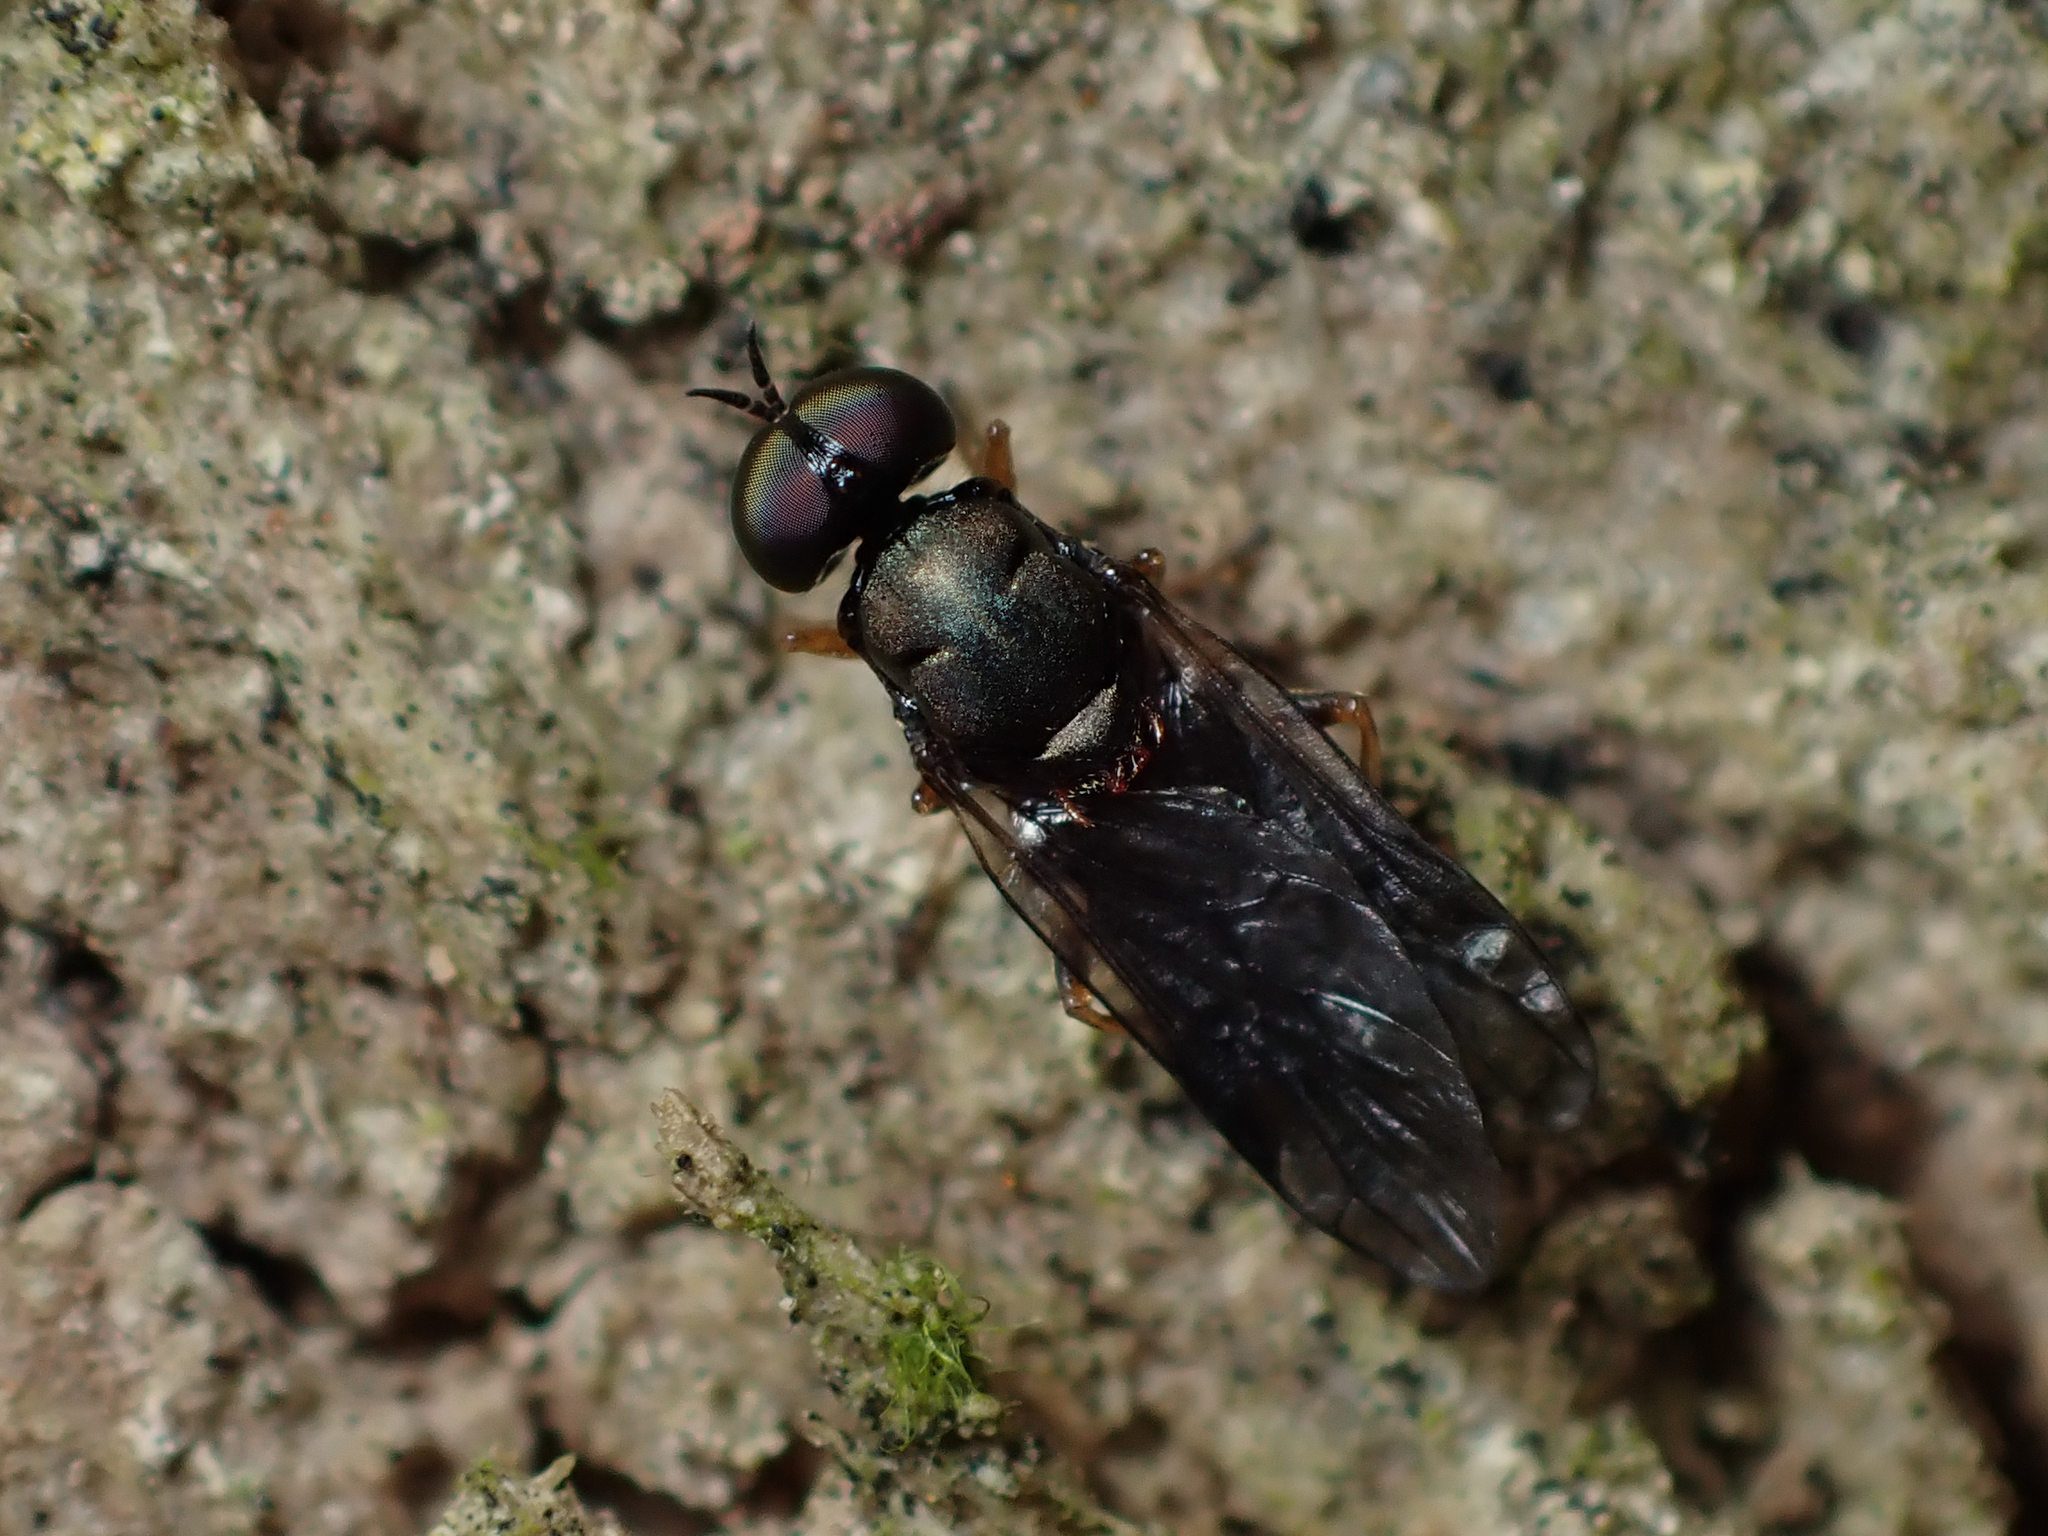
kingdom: Animalia
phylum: Arthropoda
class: Insecta
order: Diptera
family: Stratiomyidae
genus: Zealandoberis
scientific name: Zealandoberis violacea
